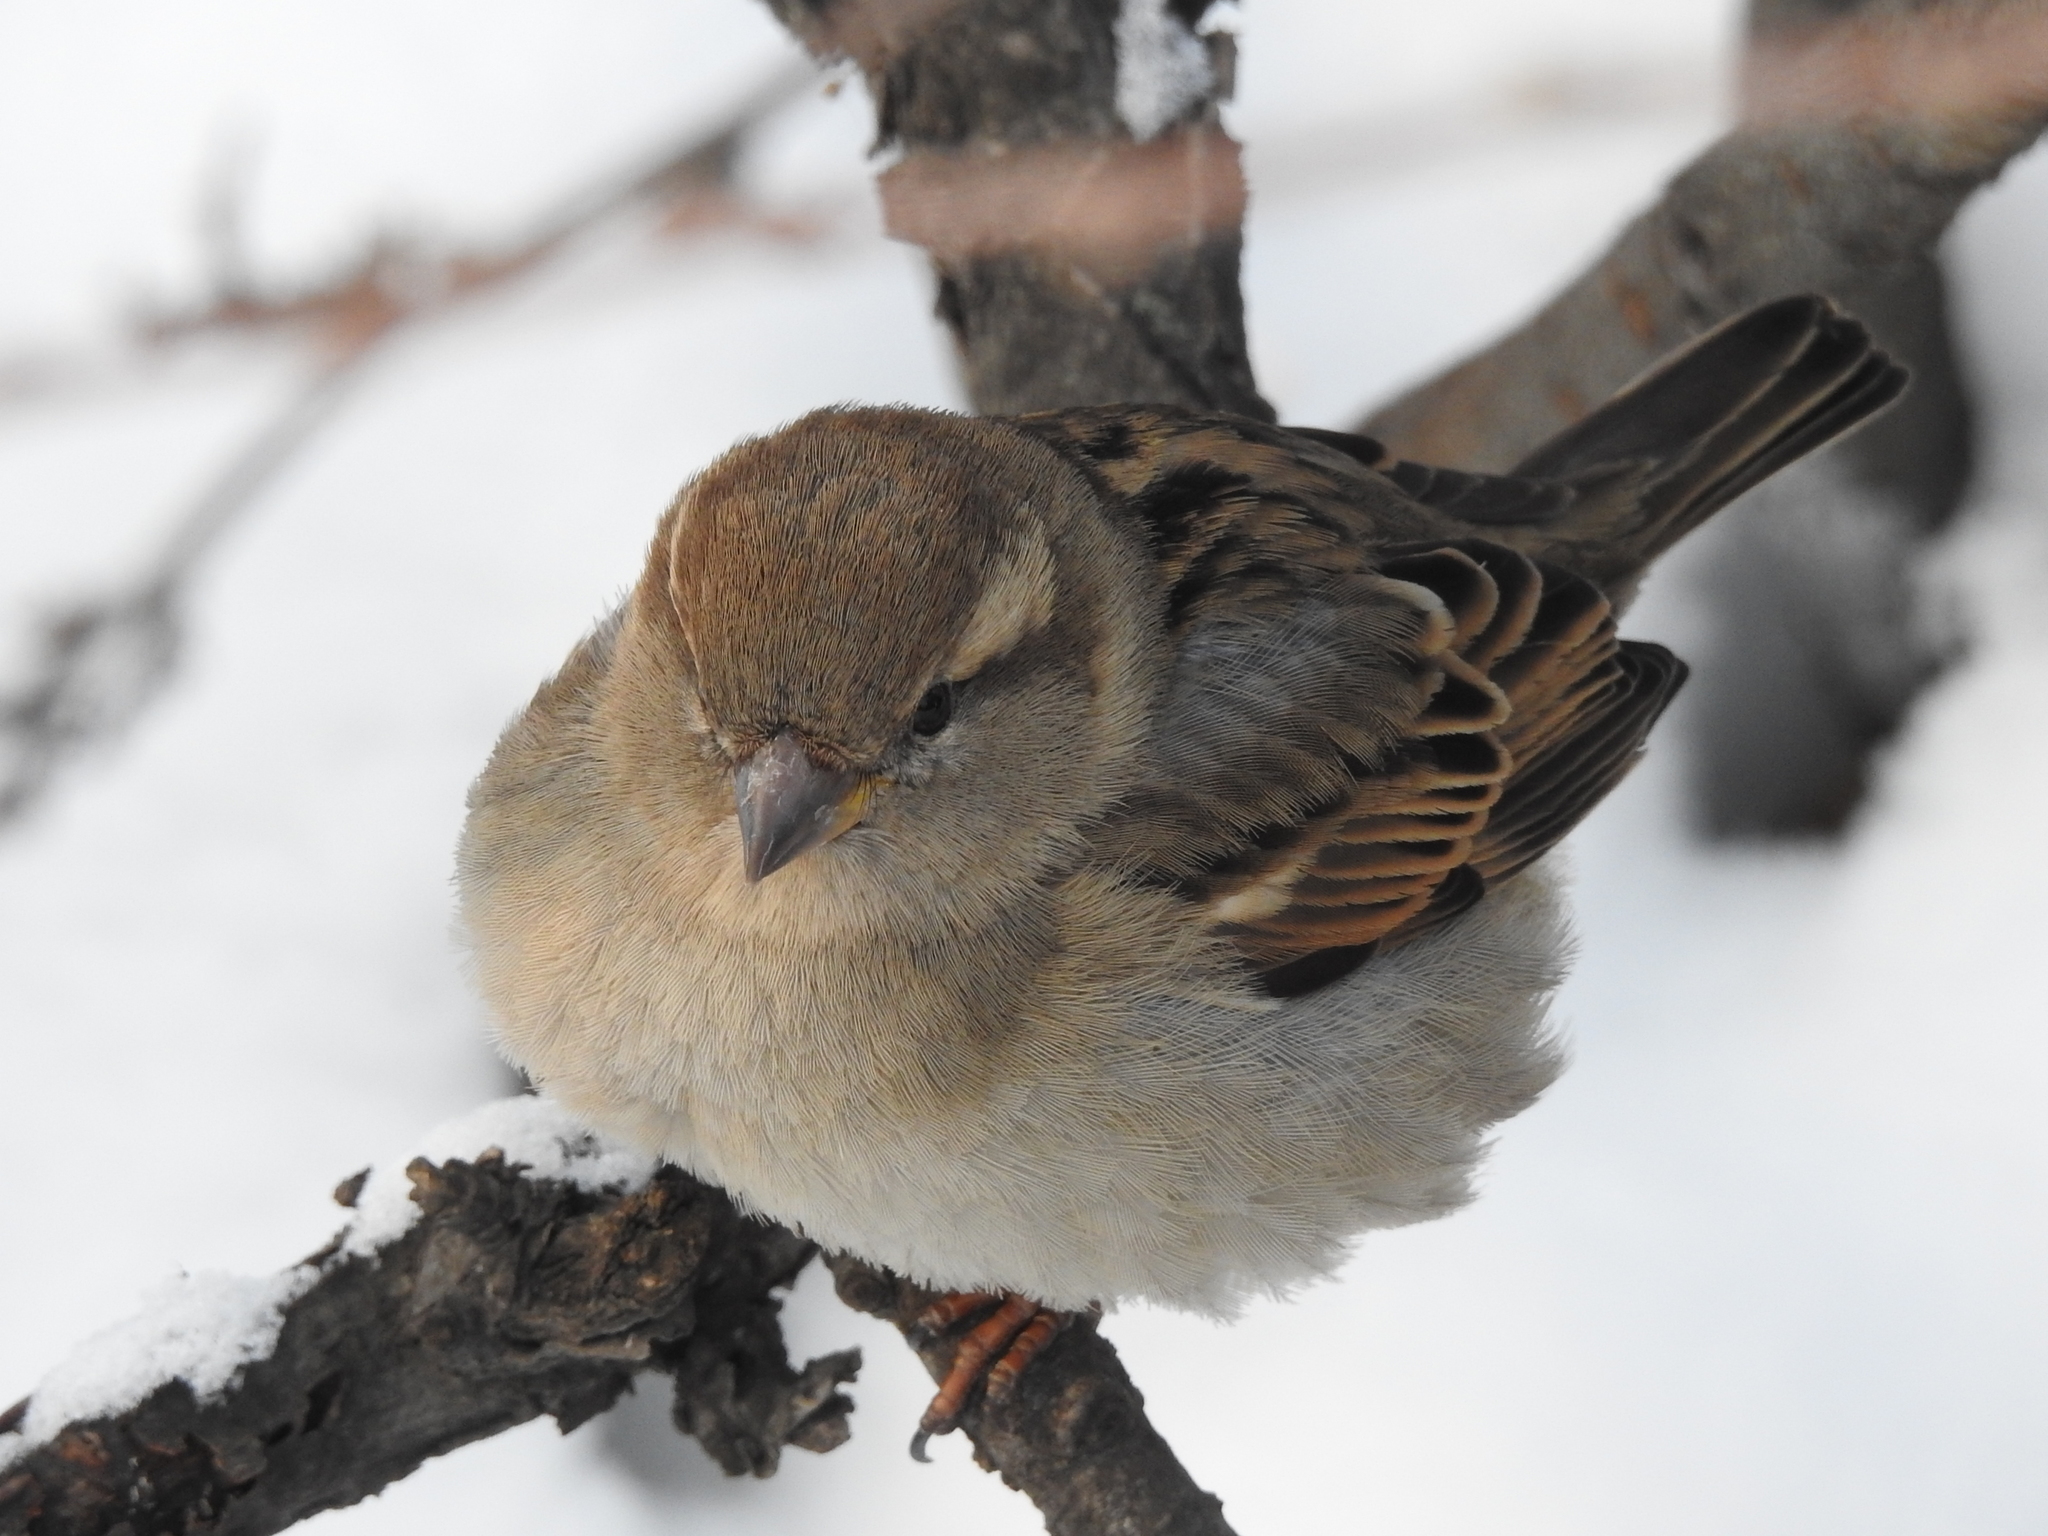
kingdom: Animalia
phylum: Chordata
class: Aves
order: Passeriformes
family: Passeridae
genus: Passer
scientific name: Passer domesticus
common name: House sparrow
